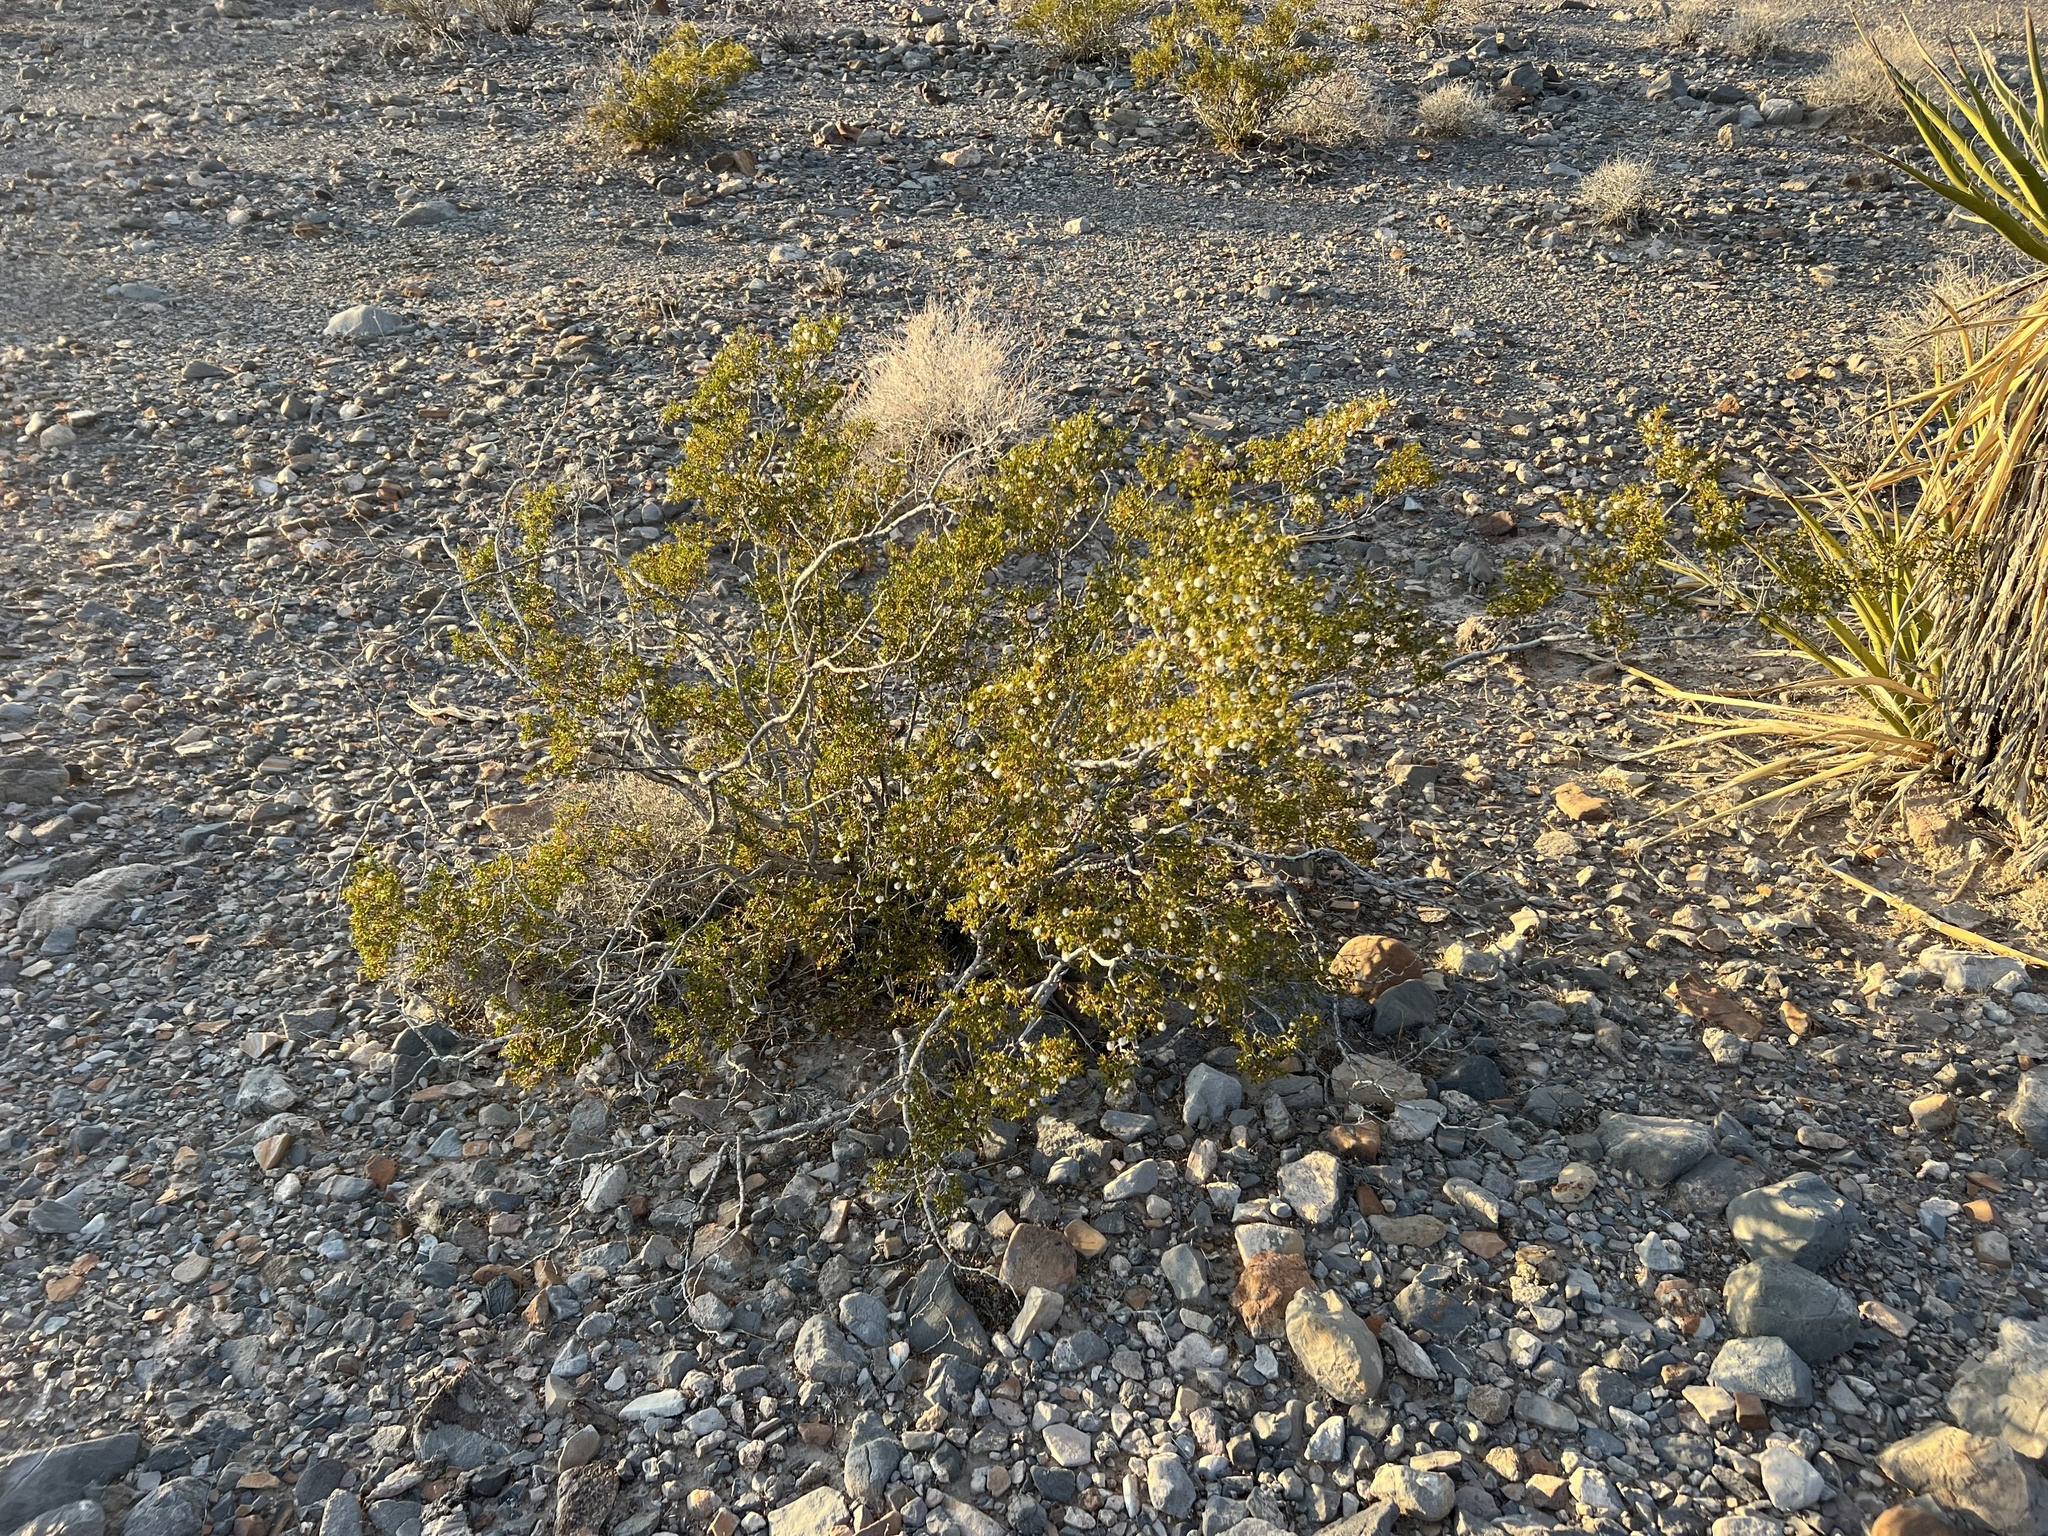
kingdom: Plantae
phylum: Tracheophyta
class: Magnoliopsida
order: Zygophyllales
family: Zygophyllaceae
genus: Larrea
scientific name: Larrea tridentata
